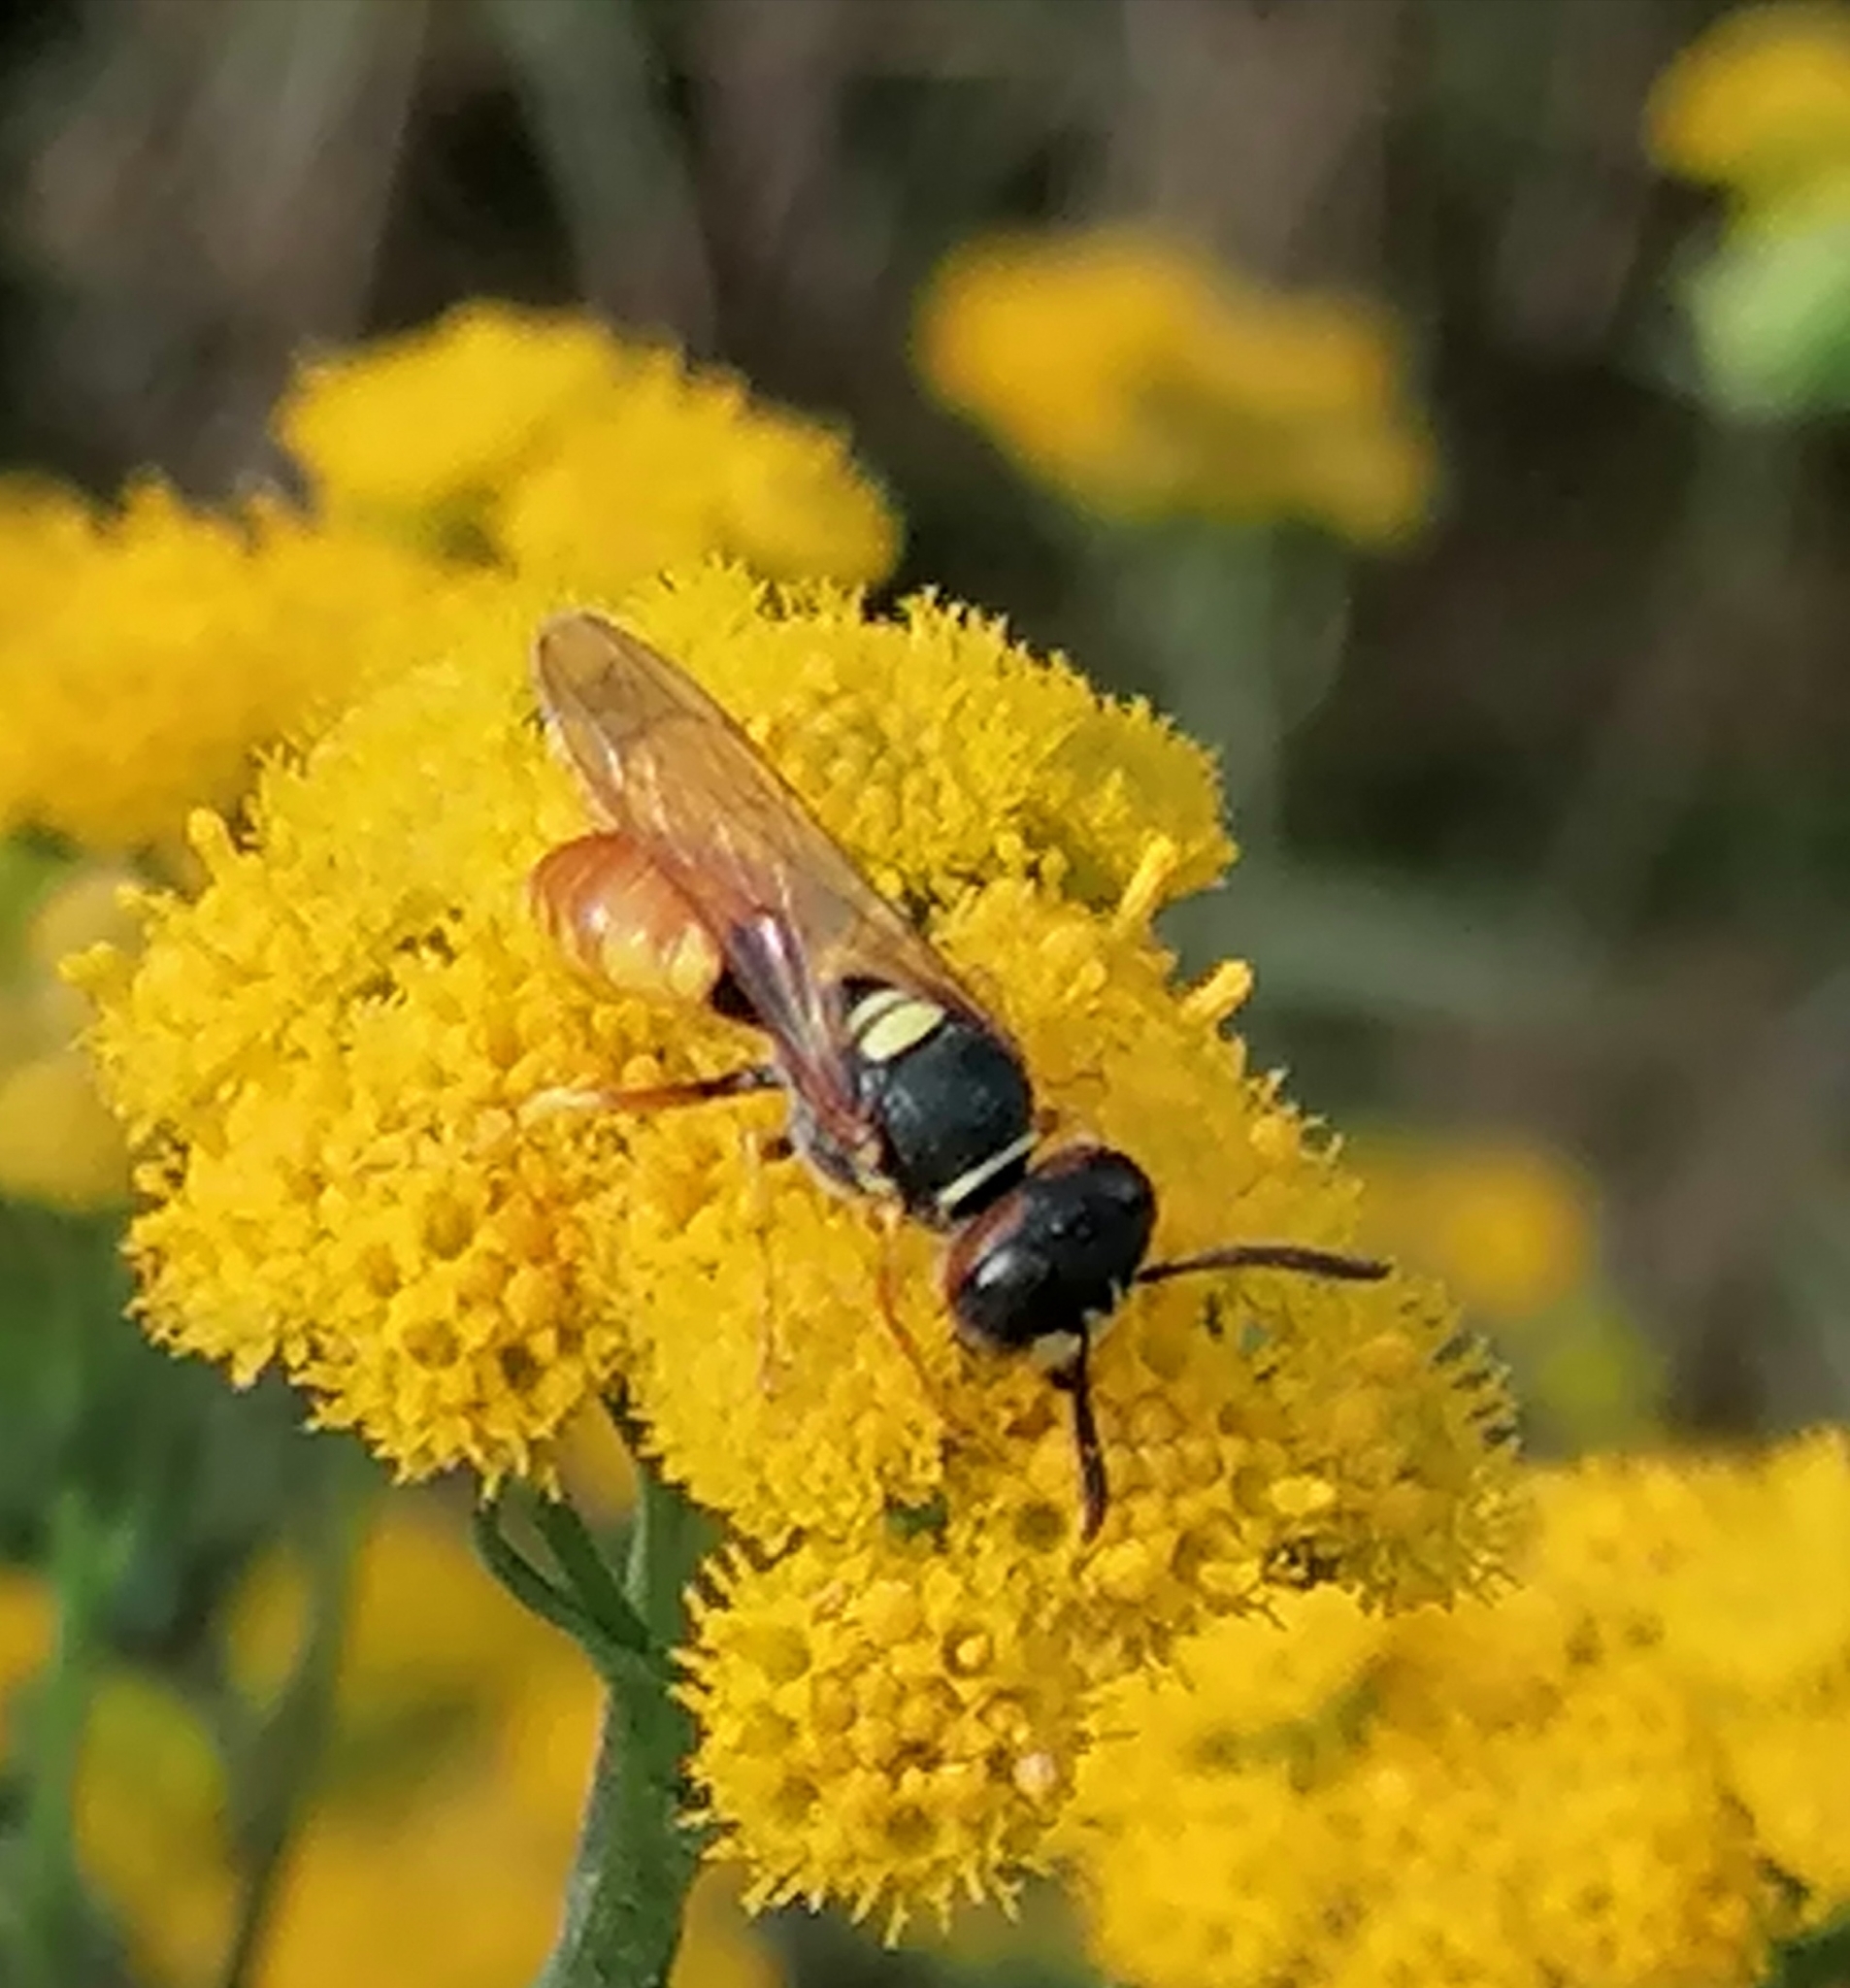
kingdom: Animalia
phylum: Arthropoda
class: Insecta
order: Hymenoptera
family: Crabronidae
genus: Philanthus
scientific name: Philanthus triangulum
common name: Bee wolf
